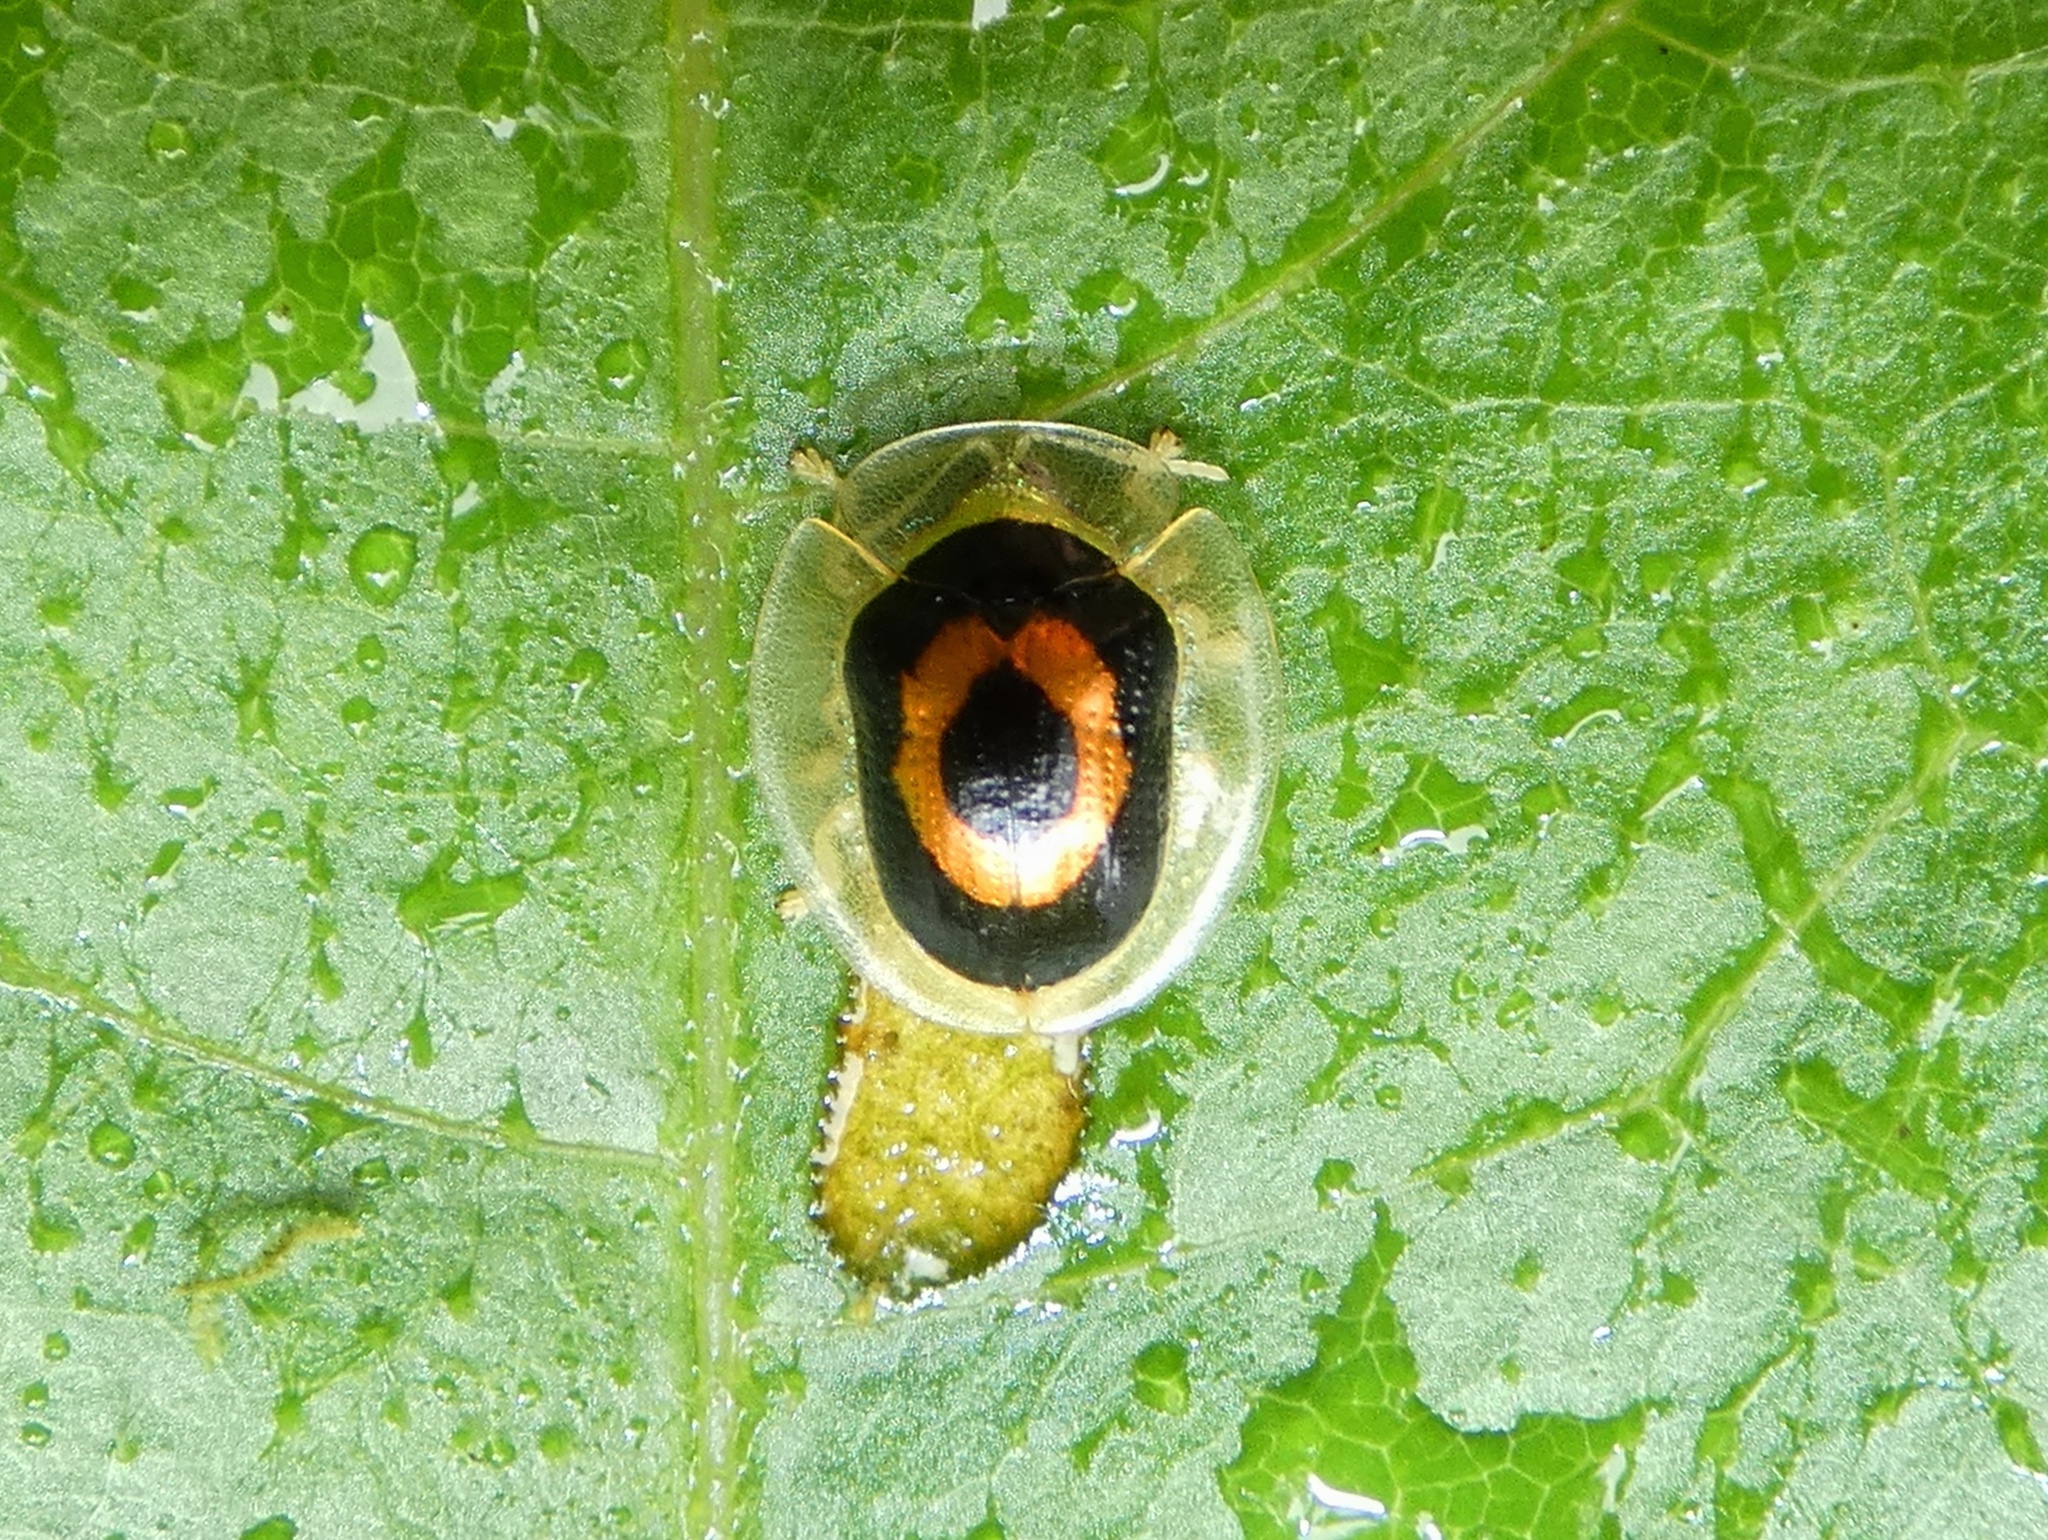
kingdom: Animalia
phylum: Arthropoda
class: Insecta
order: Coleoptera
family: Chrysomelidae
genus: Tapinaspis
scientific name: Tapinaspis wesmaeli
